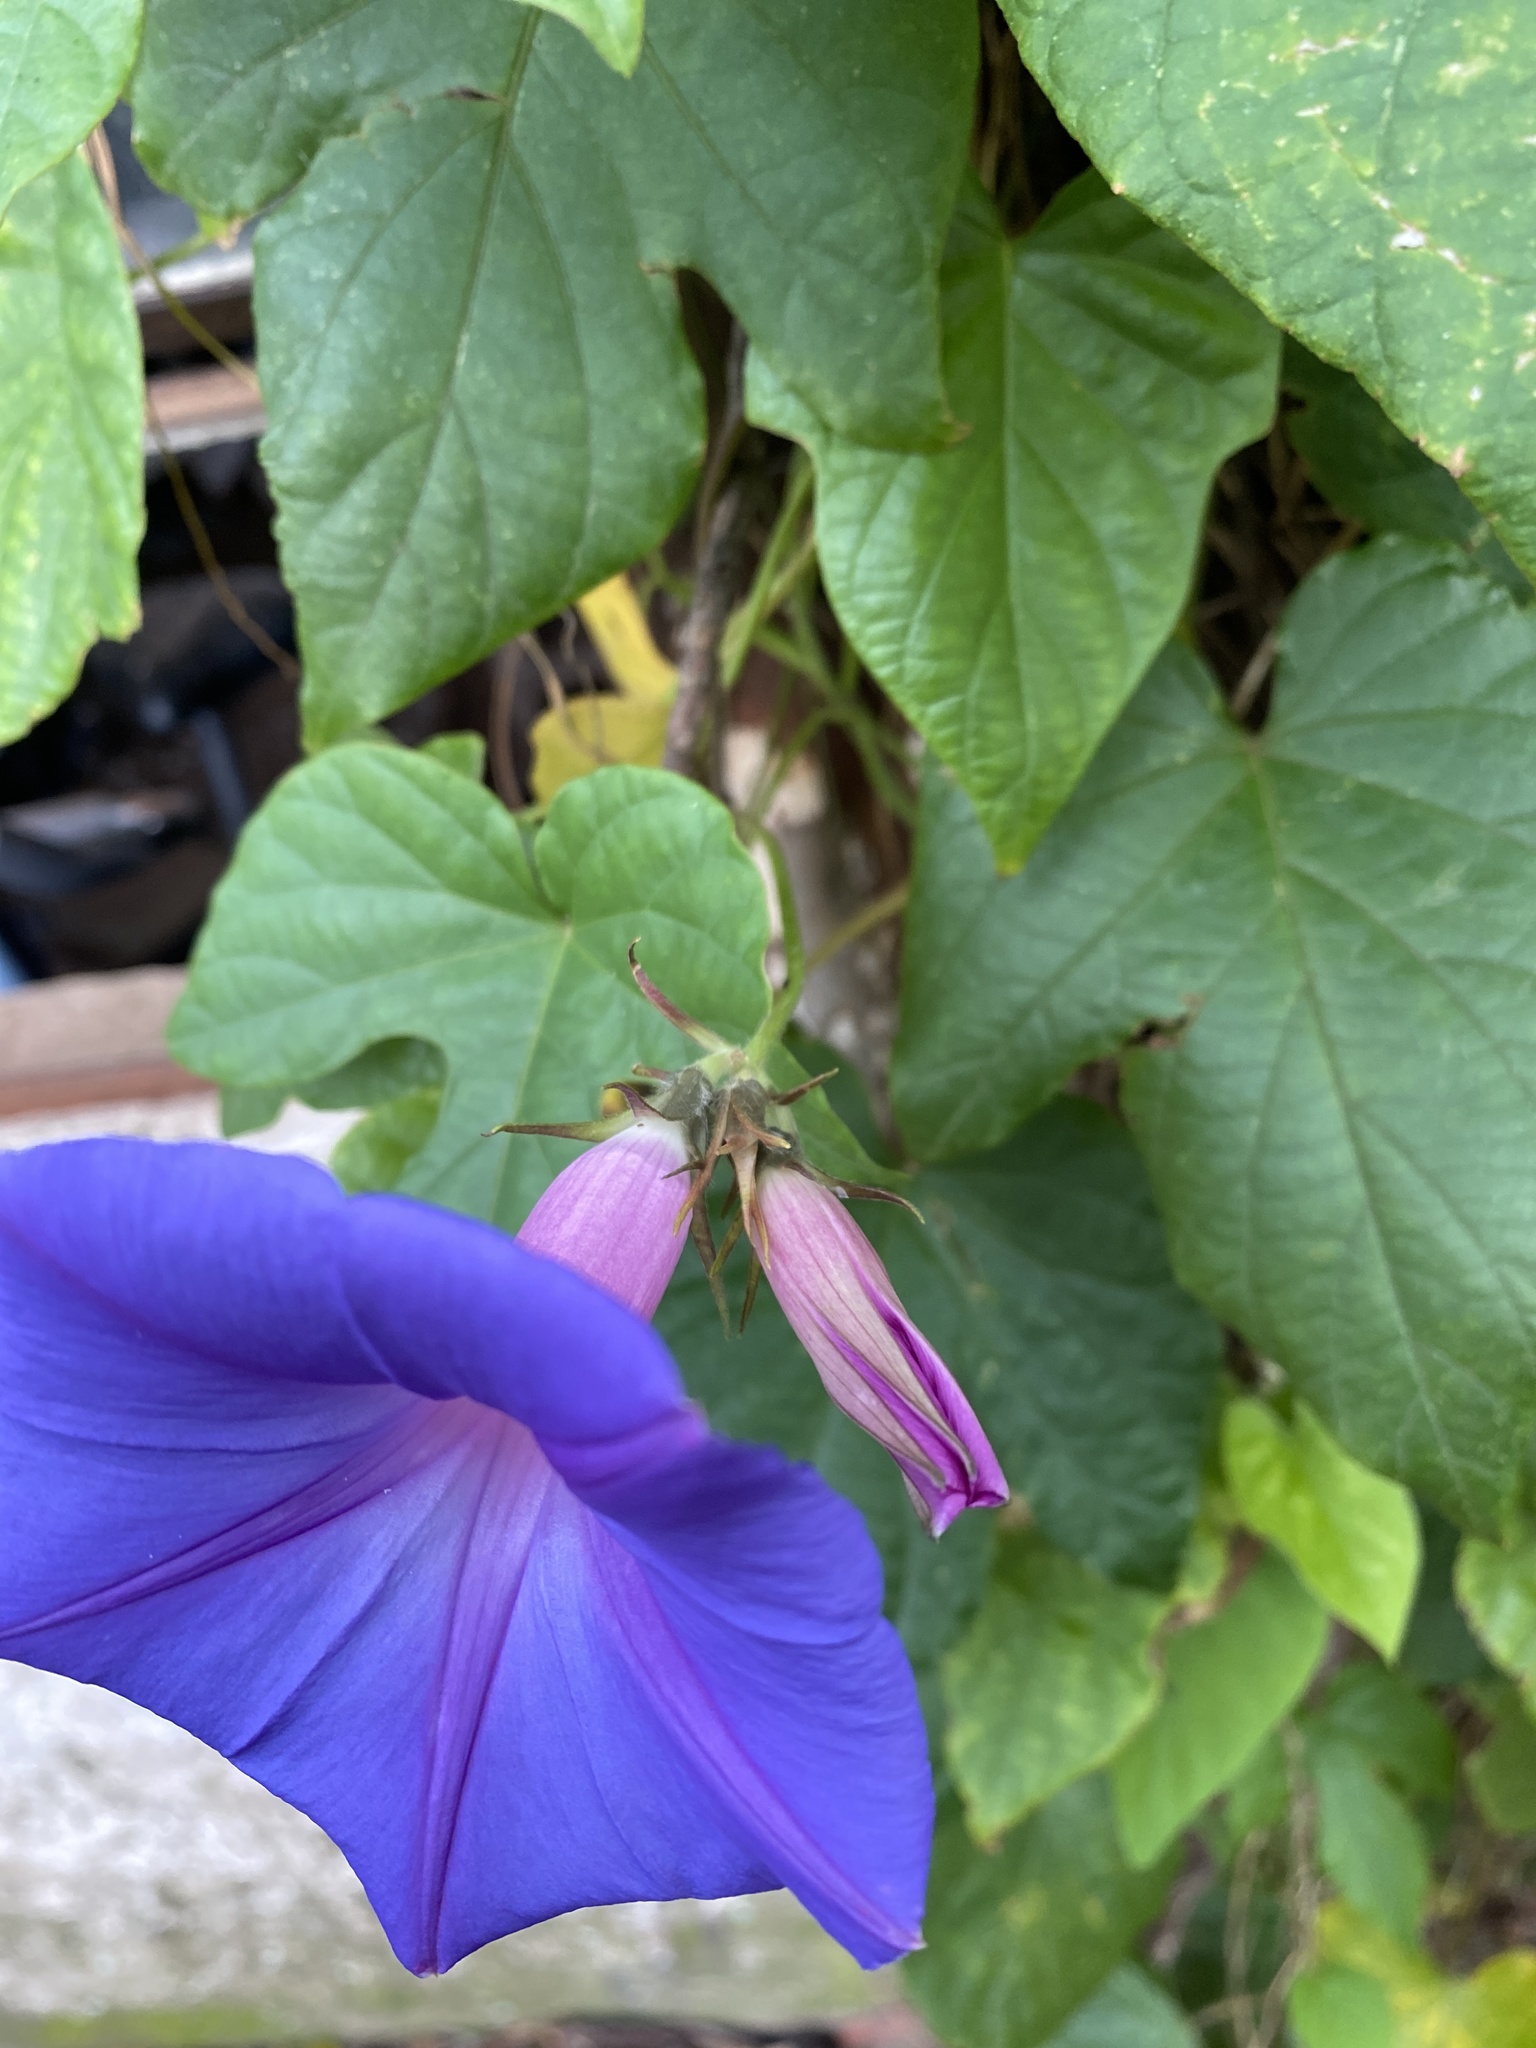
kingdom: Plantae
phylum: Tracheophyta
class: Magnoliopsida
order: Solanales
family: Convolvulaceae
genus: Ipomoea
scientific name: Ipomoea indica
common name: Blue dawnflower
